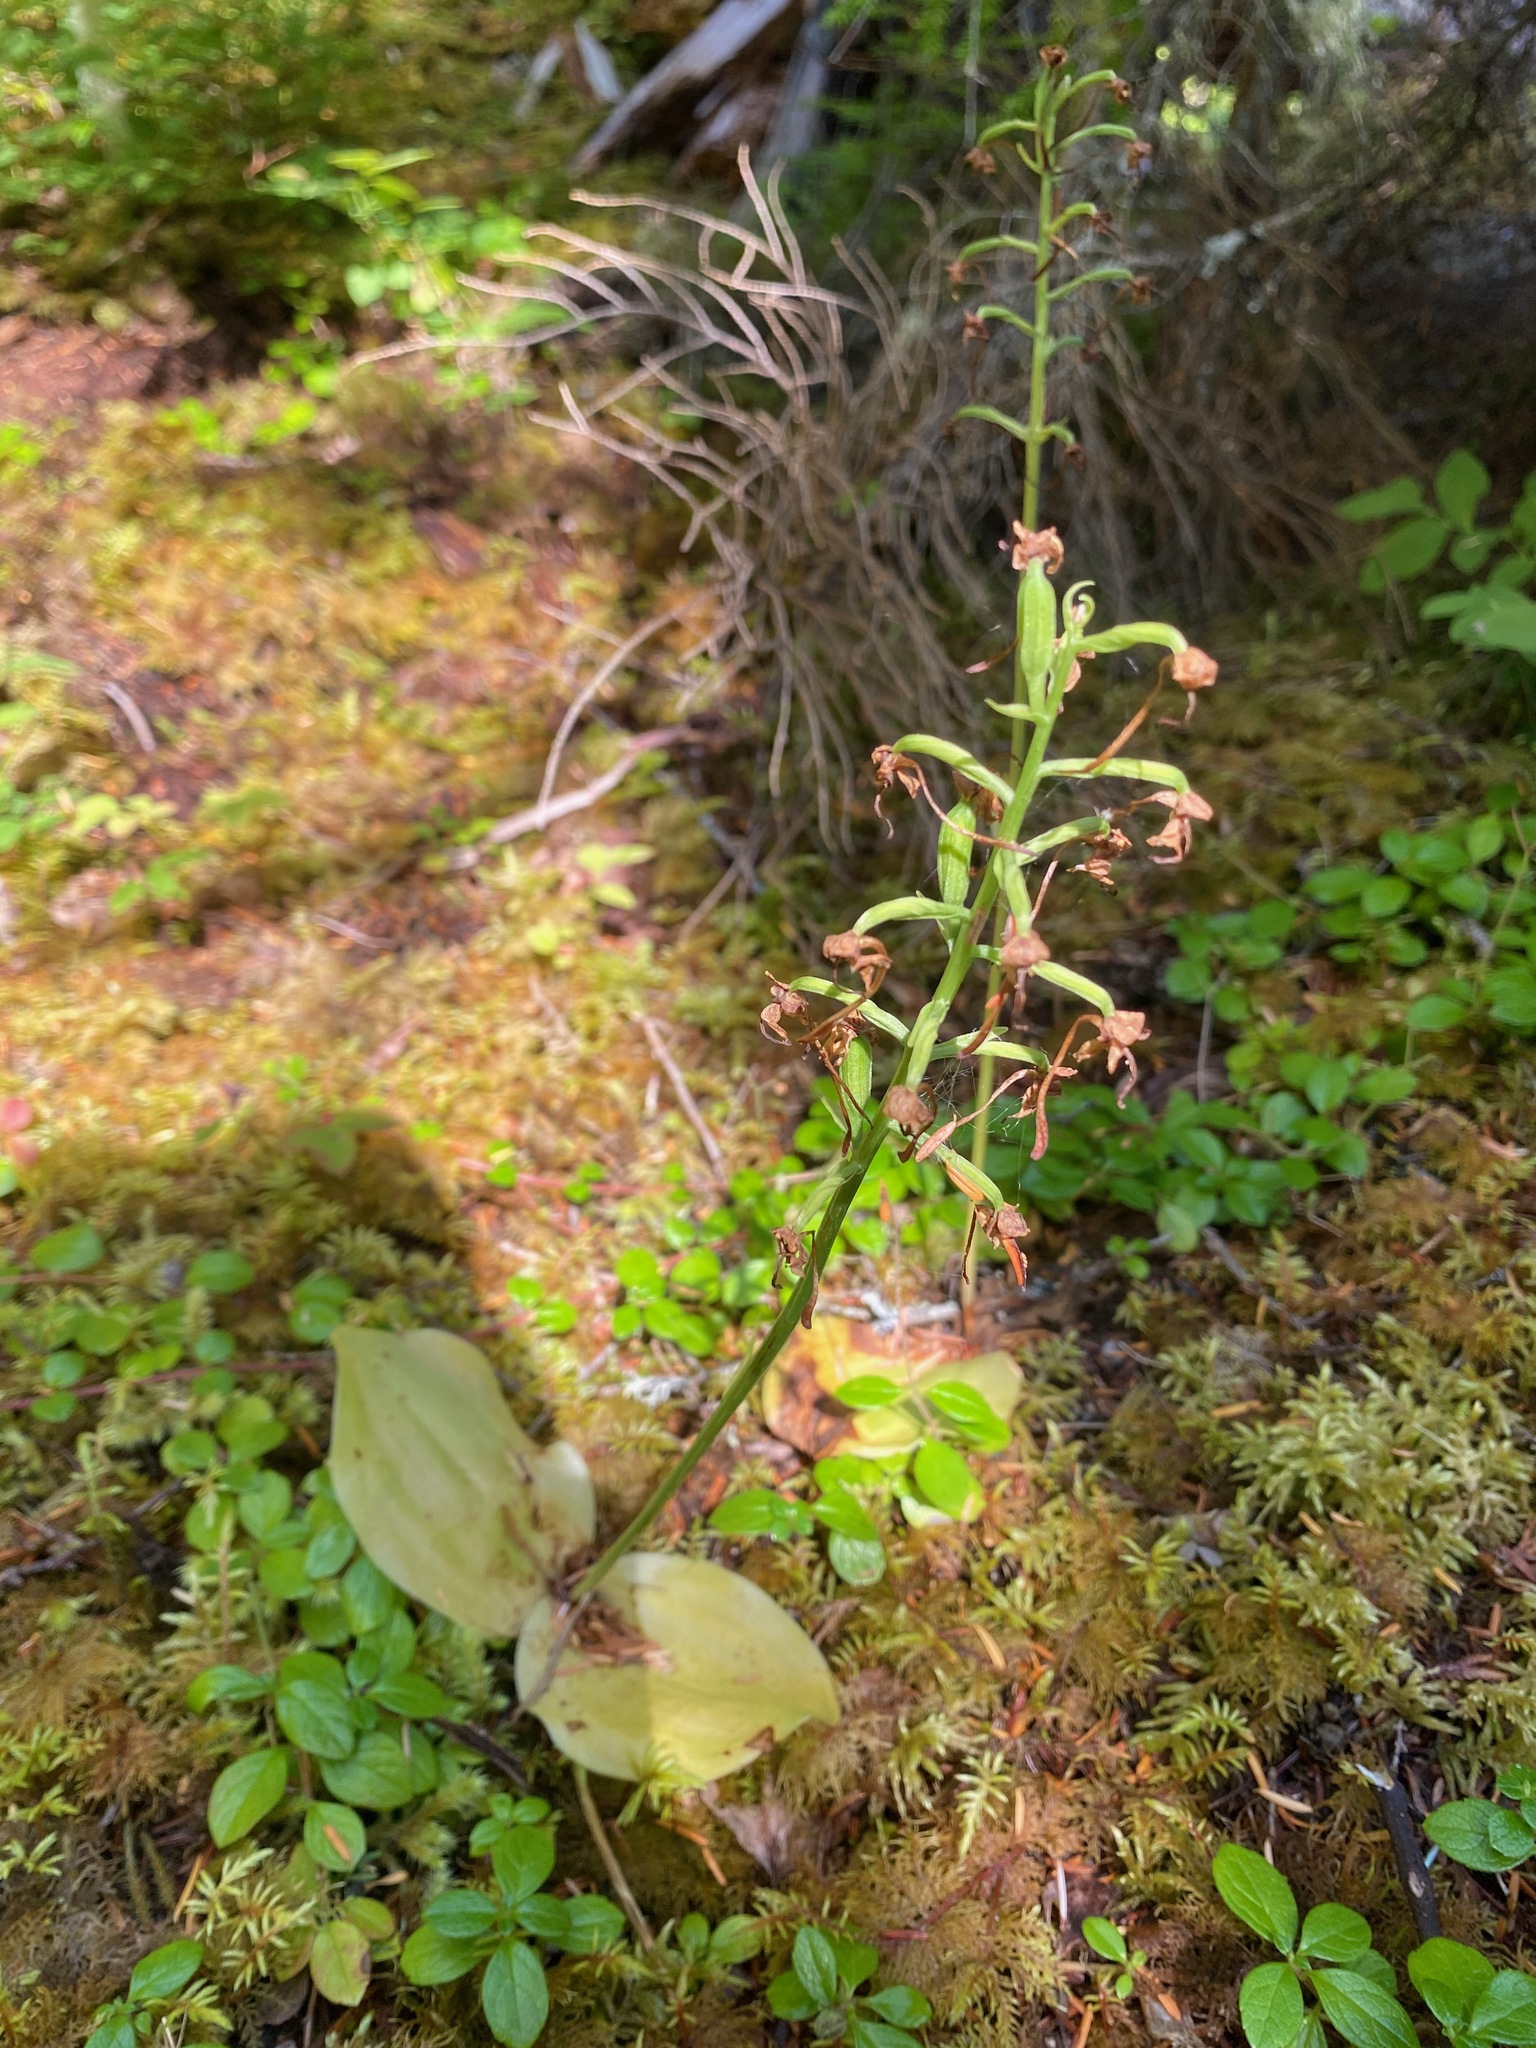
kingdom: Plantae
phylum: Tracheophyta
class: Liliopsida
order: Asparagales
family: Orchidaceae
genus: Platanthera
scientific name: Platanthera orbiculata
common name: Large round-leaved orchid
